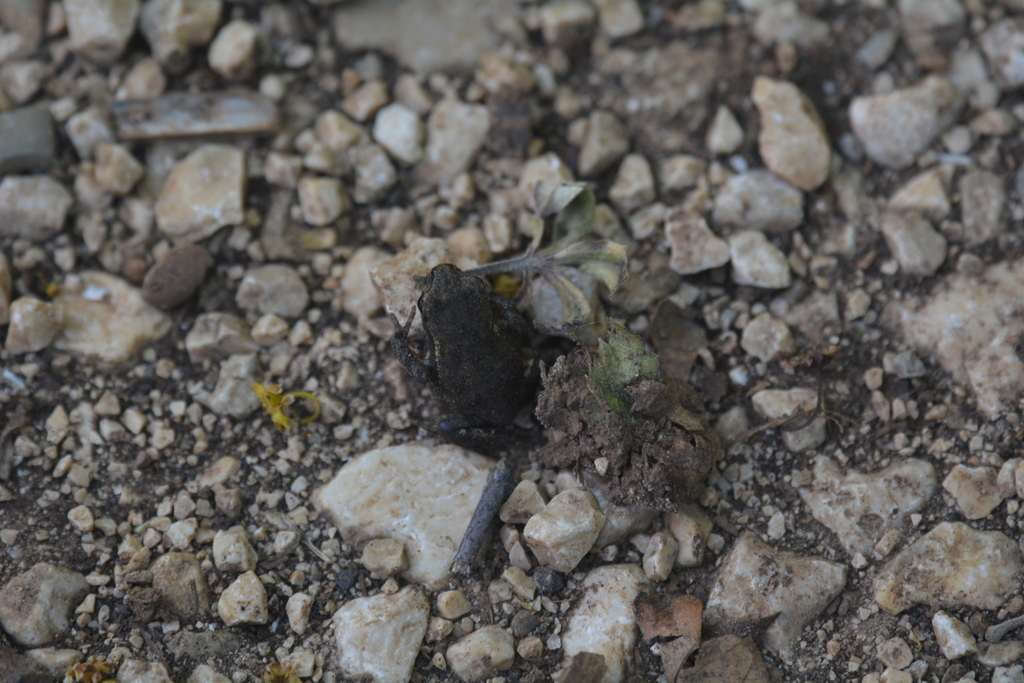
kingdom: Animalia
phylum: Chordata
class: Amphibia
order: Anura
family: Bufonidae
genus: Bufo
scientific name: Bufo bufo
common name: Common toad
